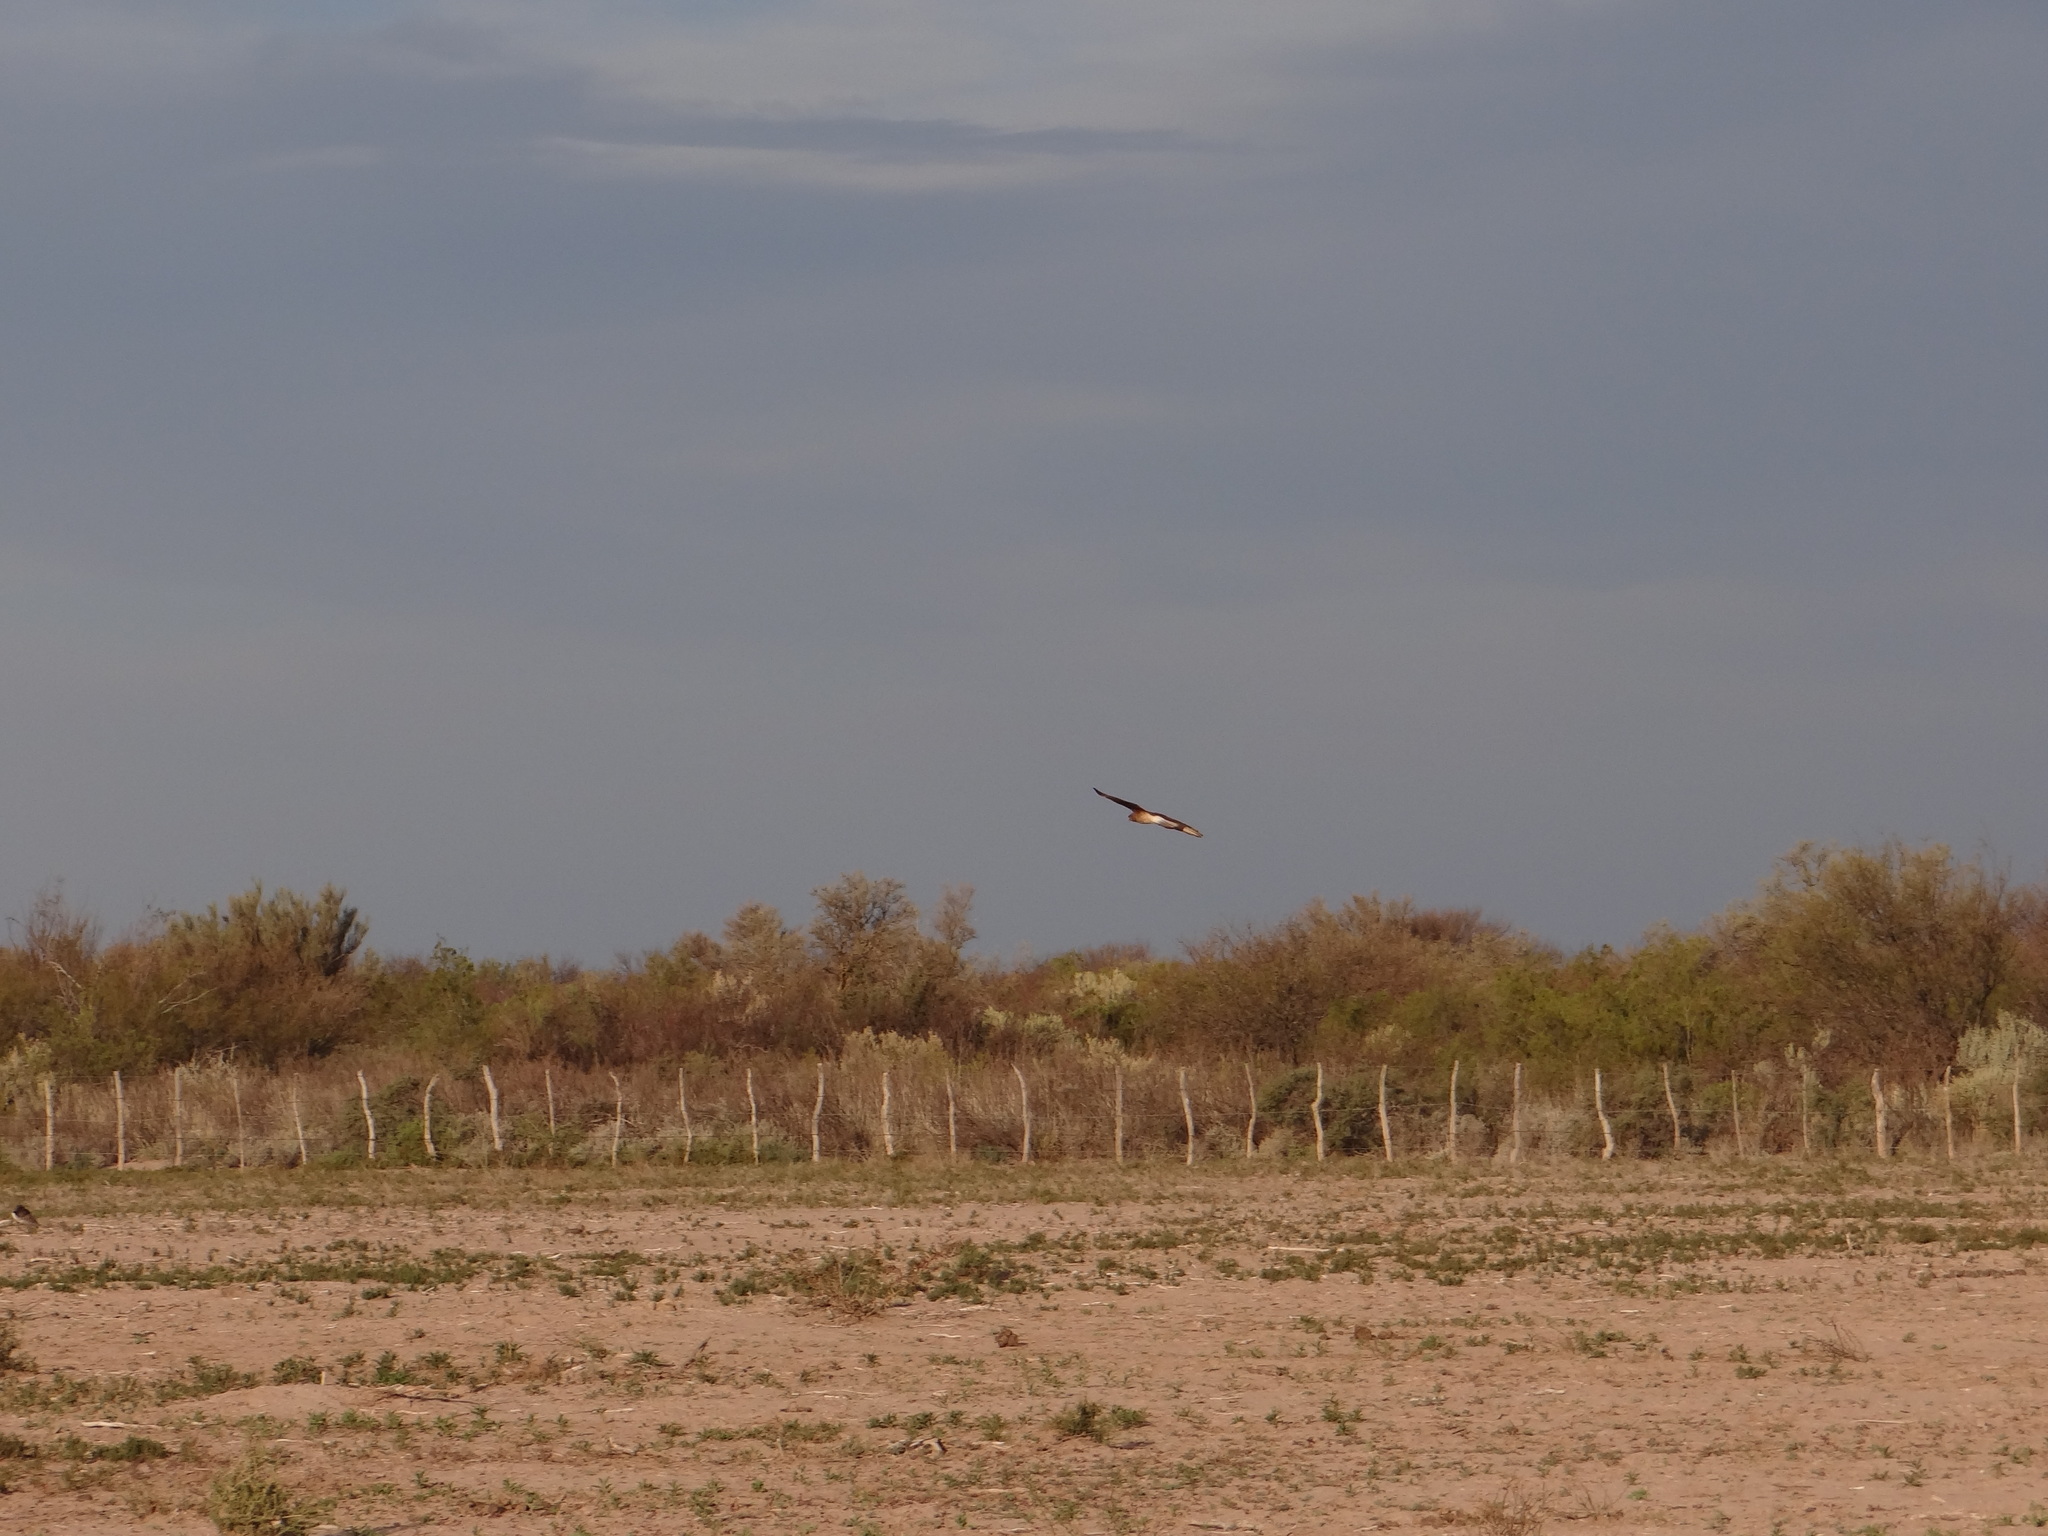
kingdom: Animalia
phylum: Chordata
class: Aves
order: Falconiformes
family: Falconidae
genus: Daptrius
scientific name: Daptrius
